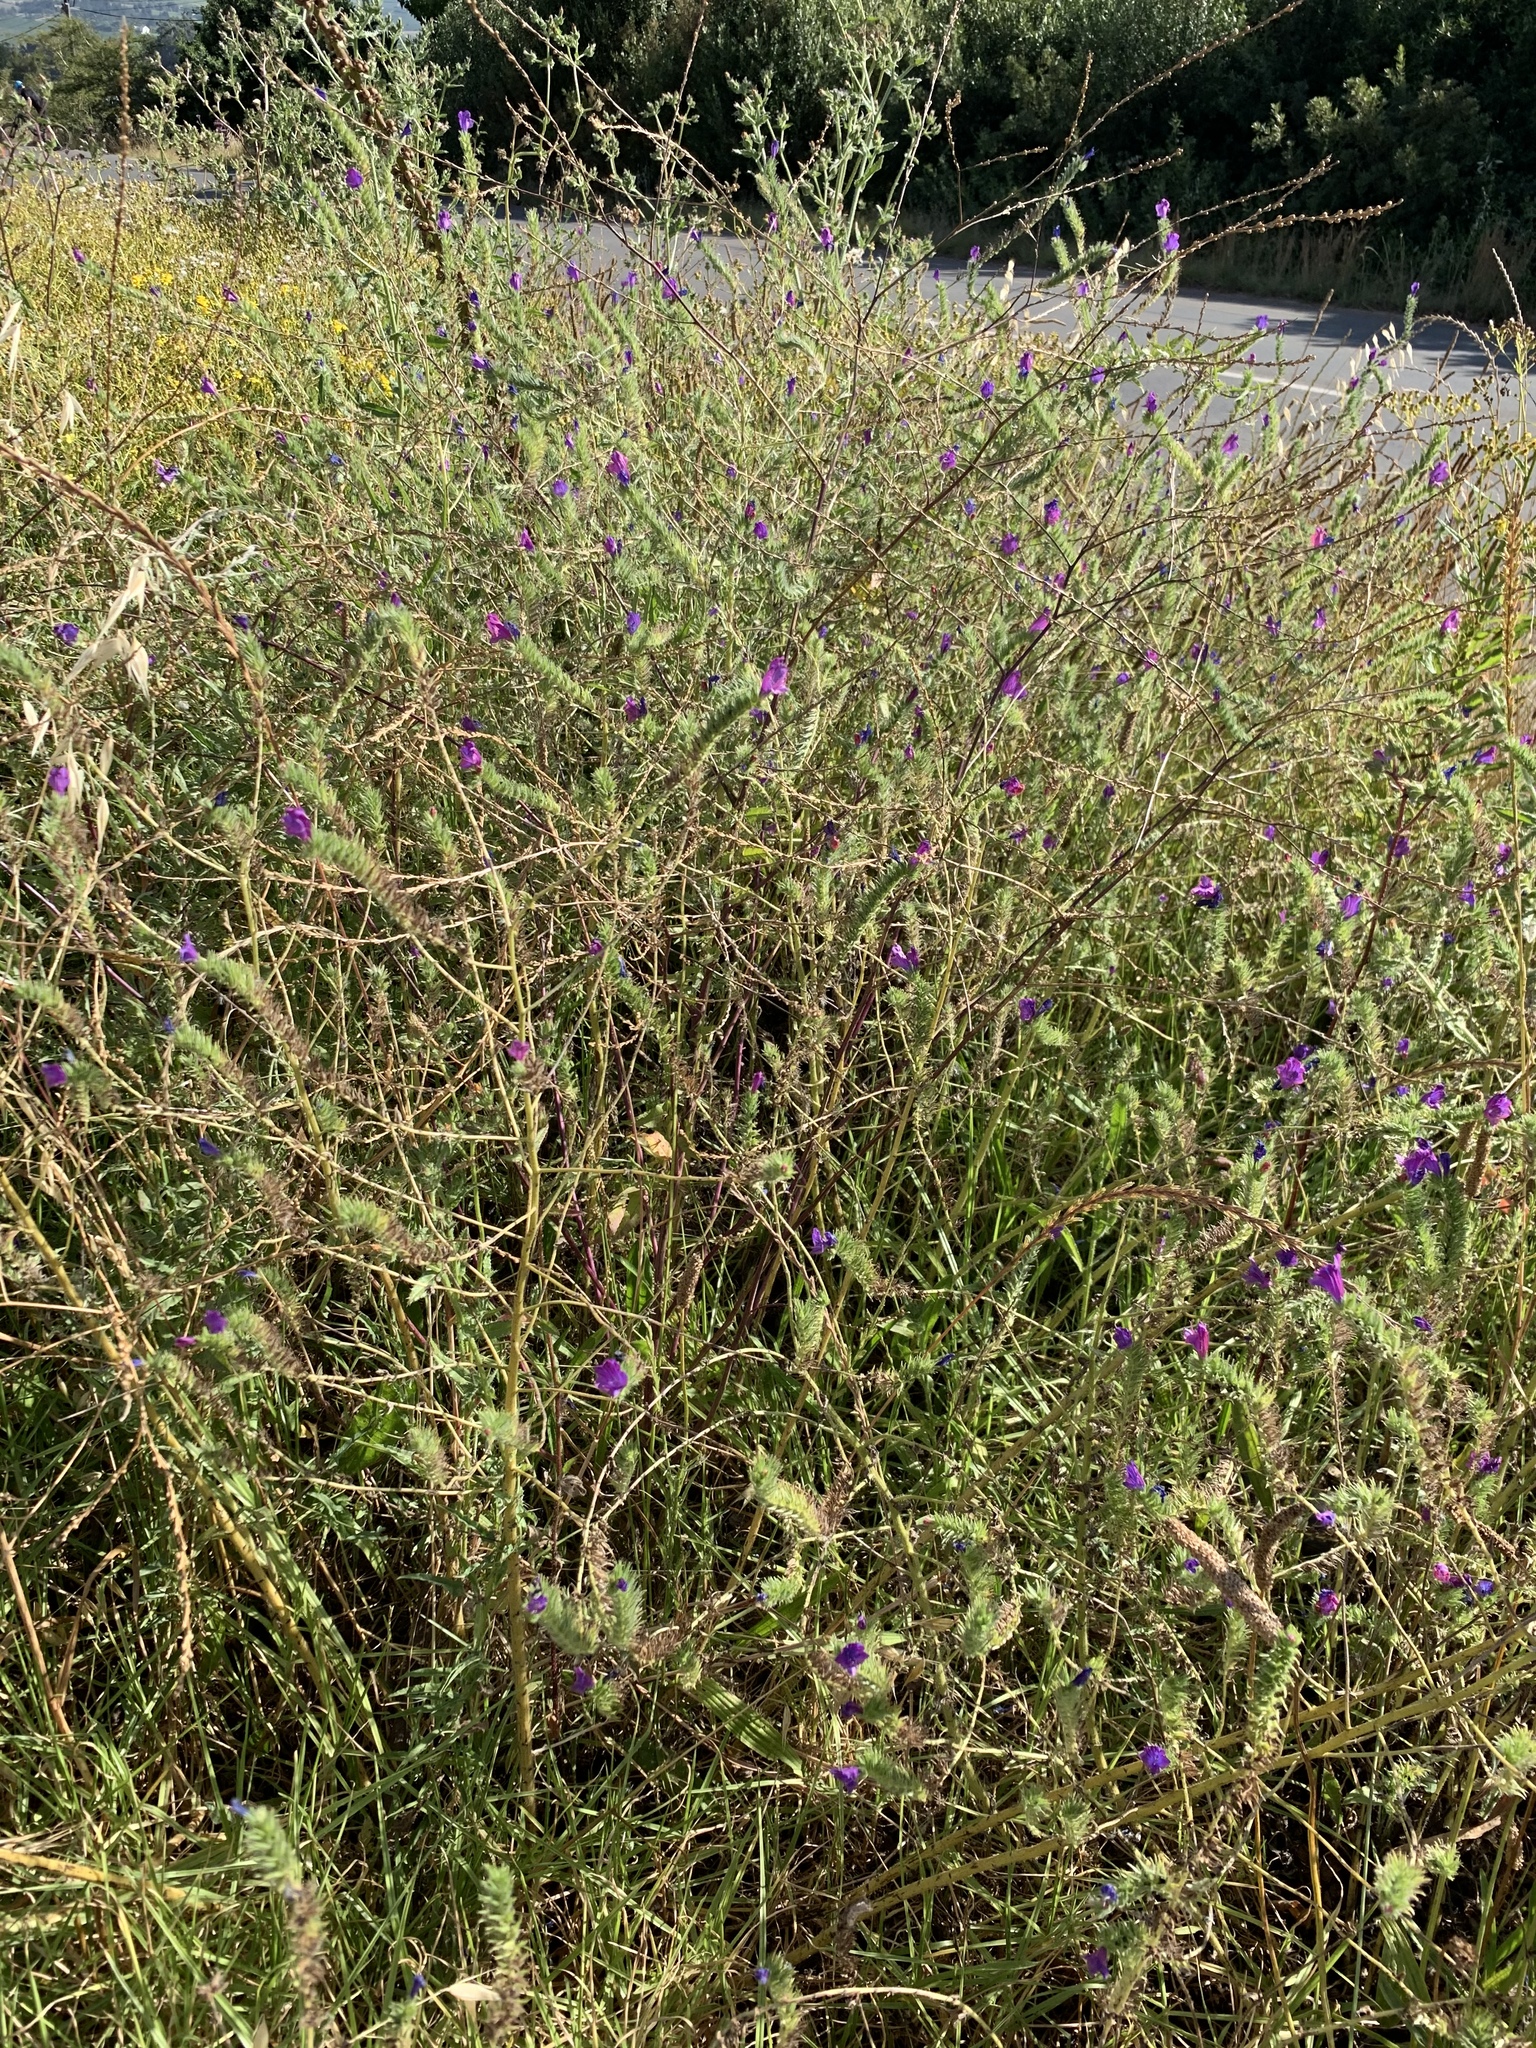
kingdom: Plantae
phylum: Tracheophyta
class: Magnoliopsida
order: Boraginales
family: Boraginaceae
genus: Echium
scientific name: Echium plantagineum
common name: Purple viper's-bugloss
